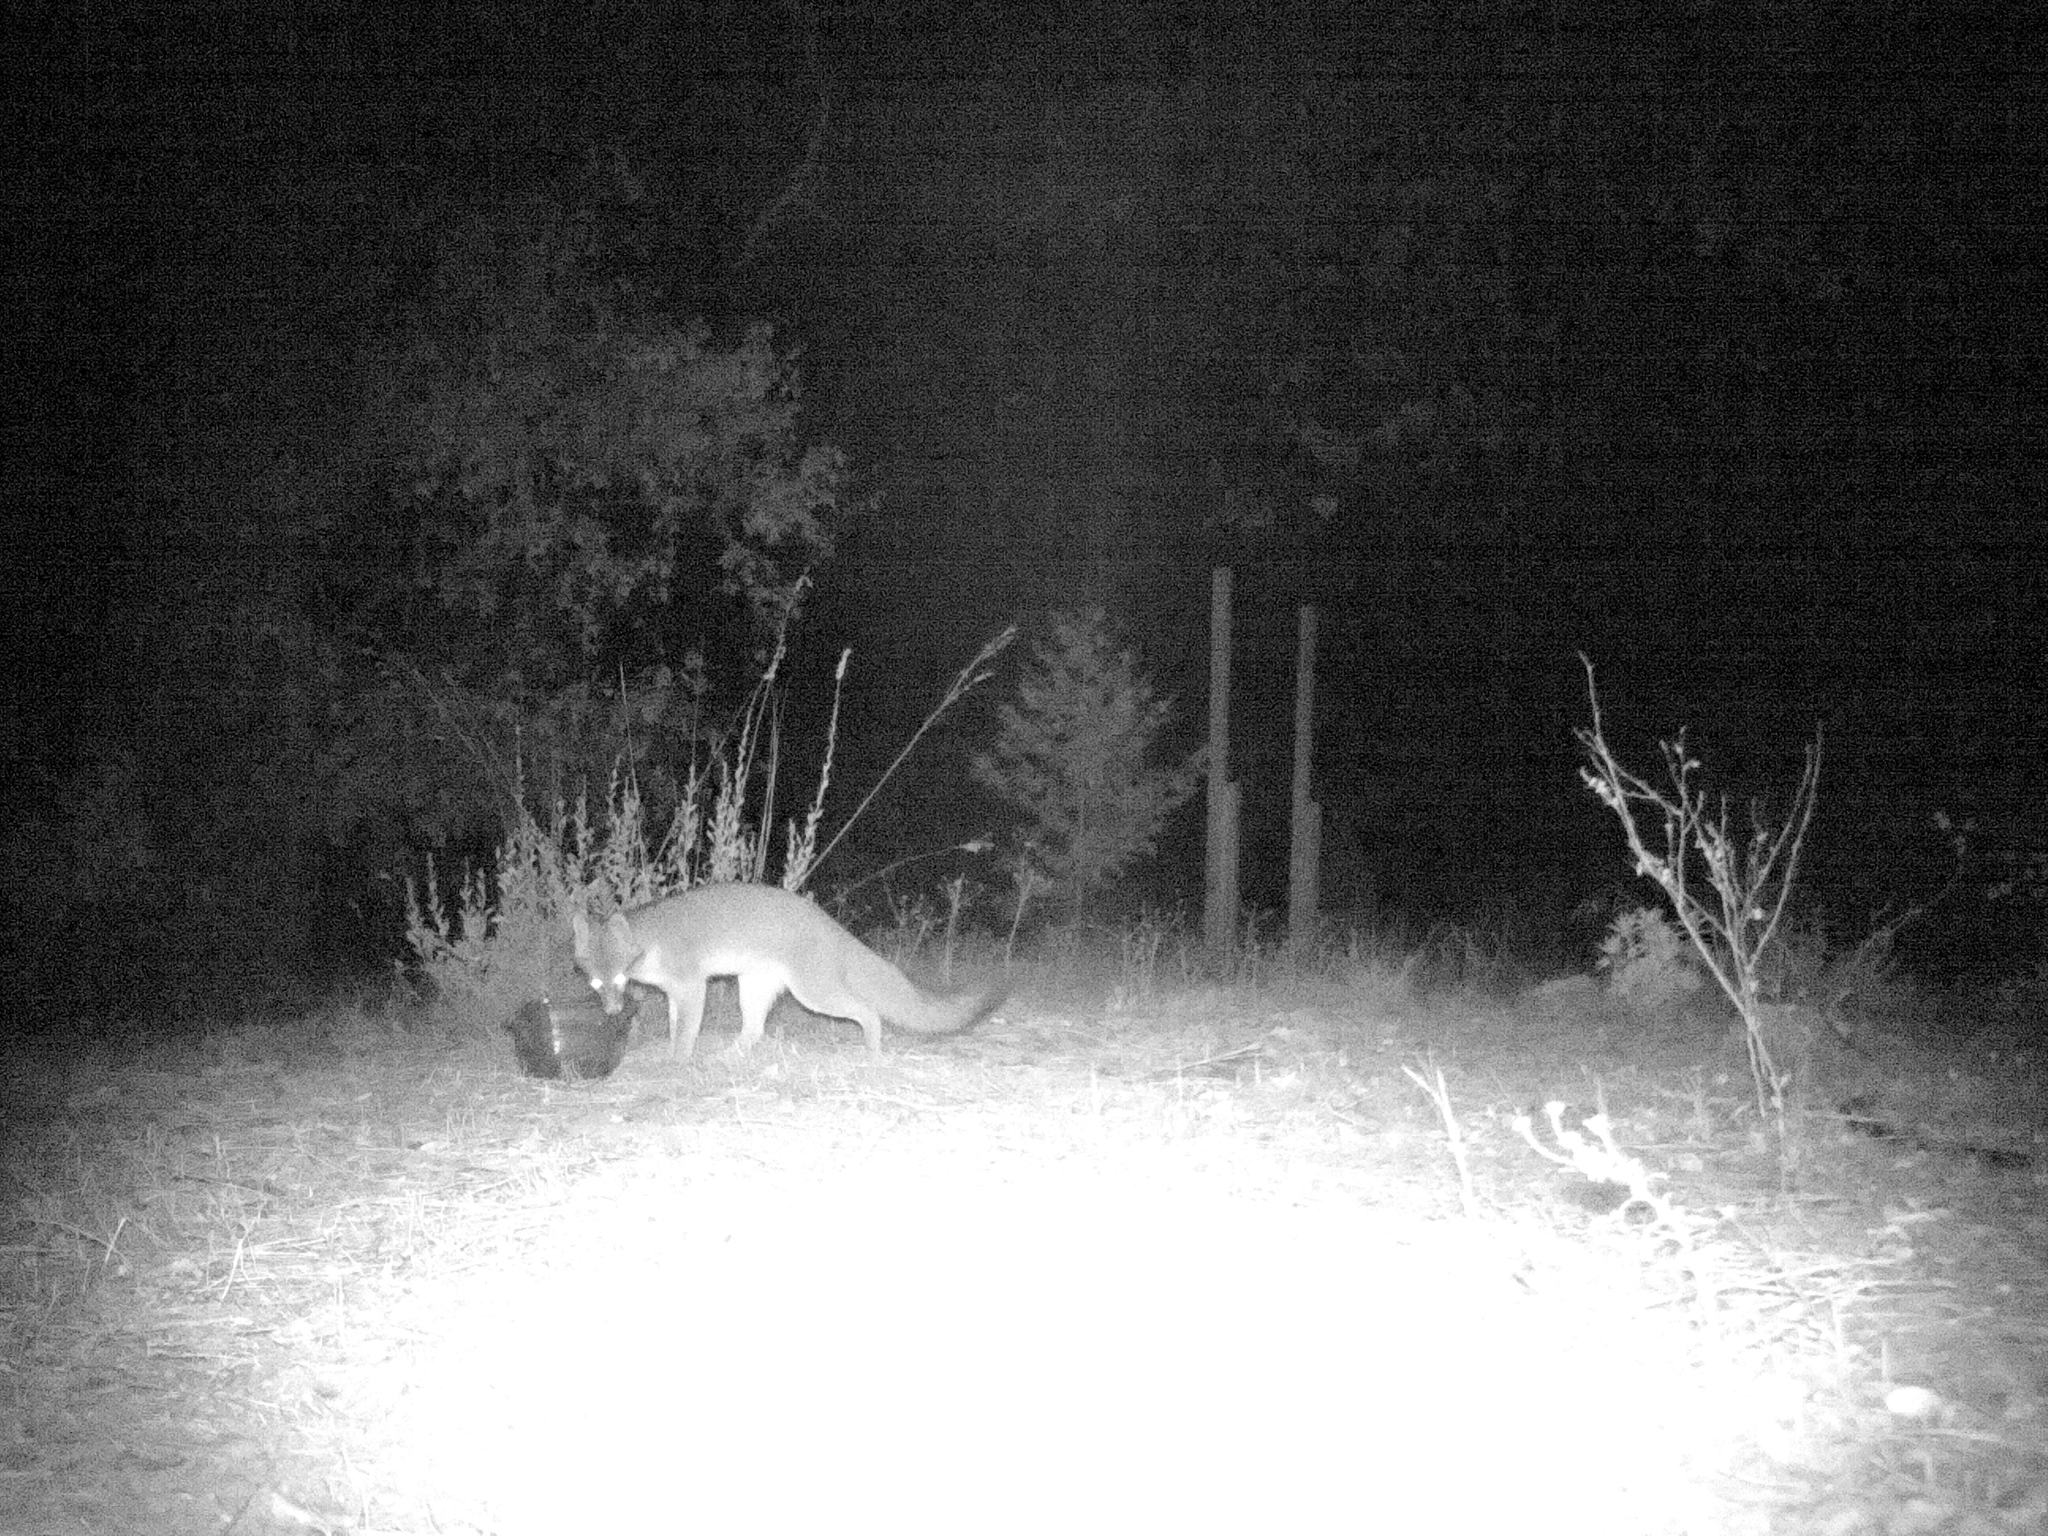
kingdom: Animalia
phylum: Chordata
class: Mammalia
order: Carnivora
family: Canidae
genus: Urocyon
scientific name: Urocyon cinereoargenteus
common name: Gray fox
